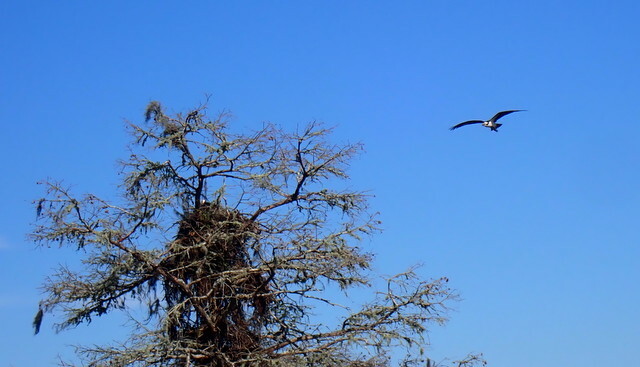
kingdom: Animalia
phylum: Chordata
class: Aves
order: Accipitriformes
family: Pandionidae
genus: Pandion
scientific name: Pandion haliaetus
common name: Osprey
